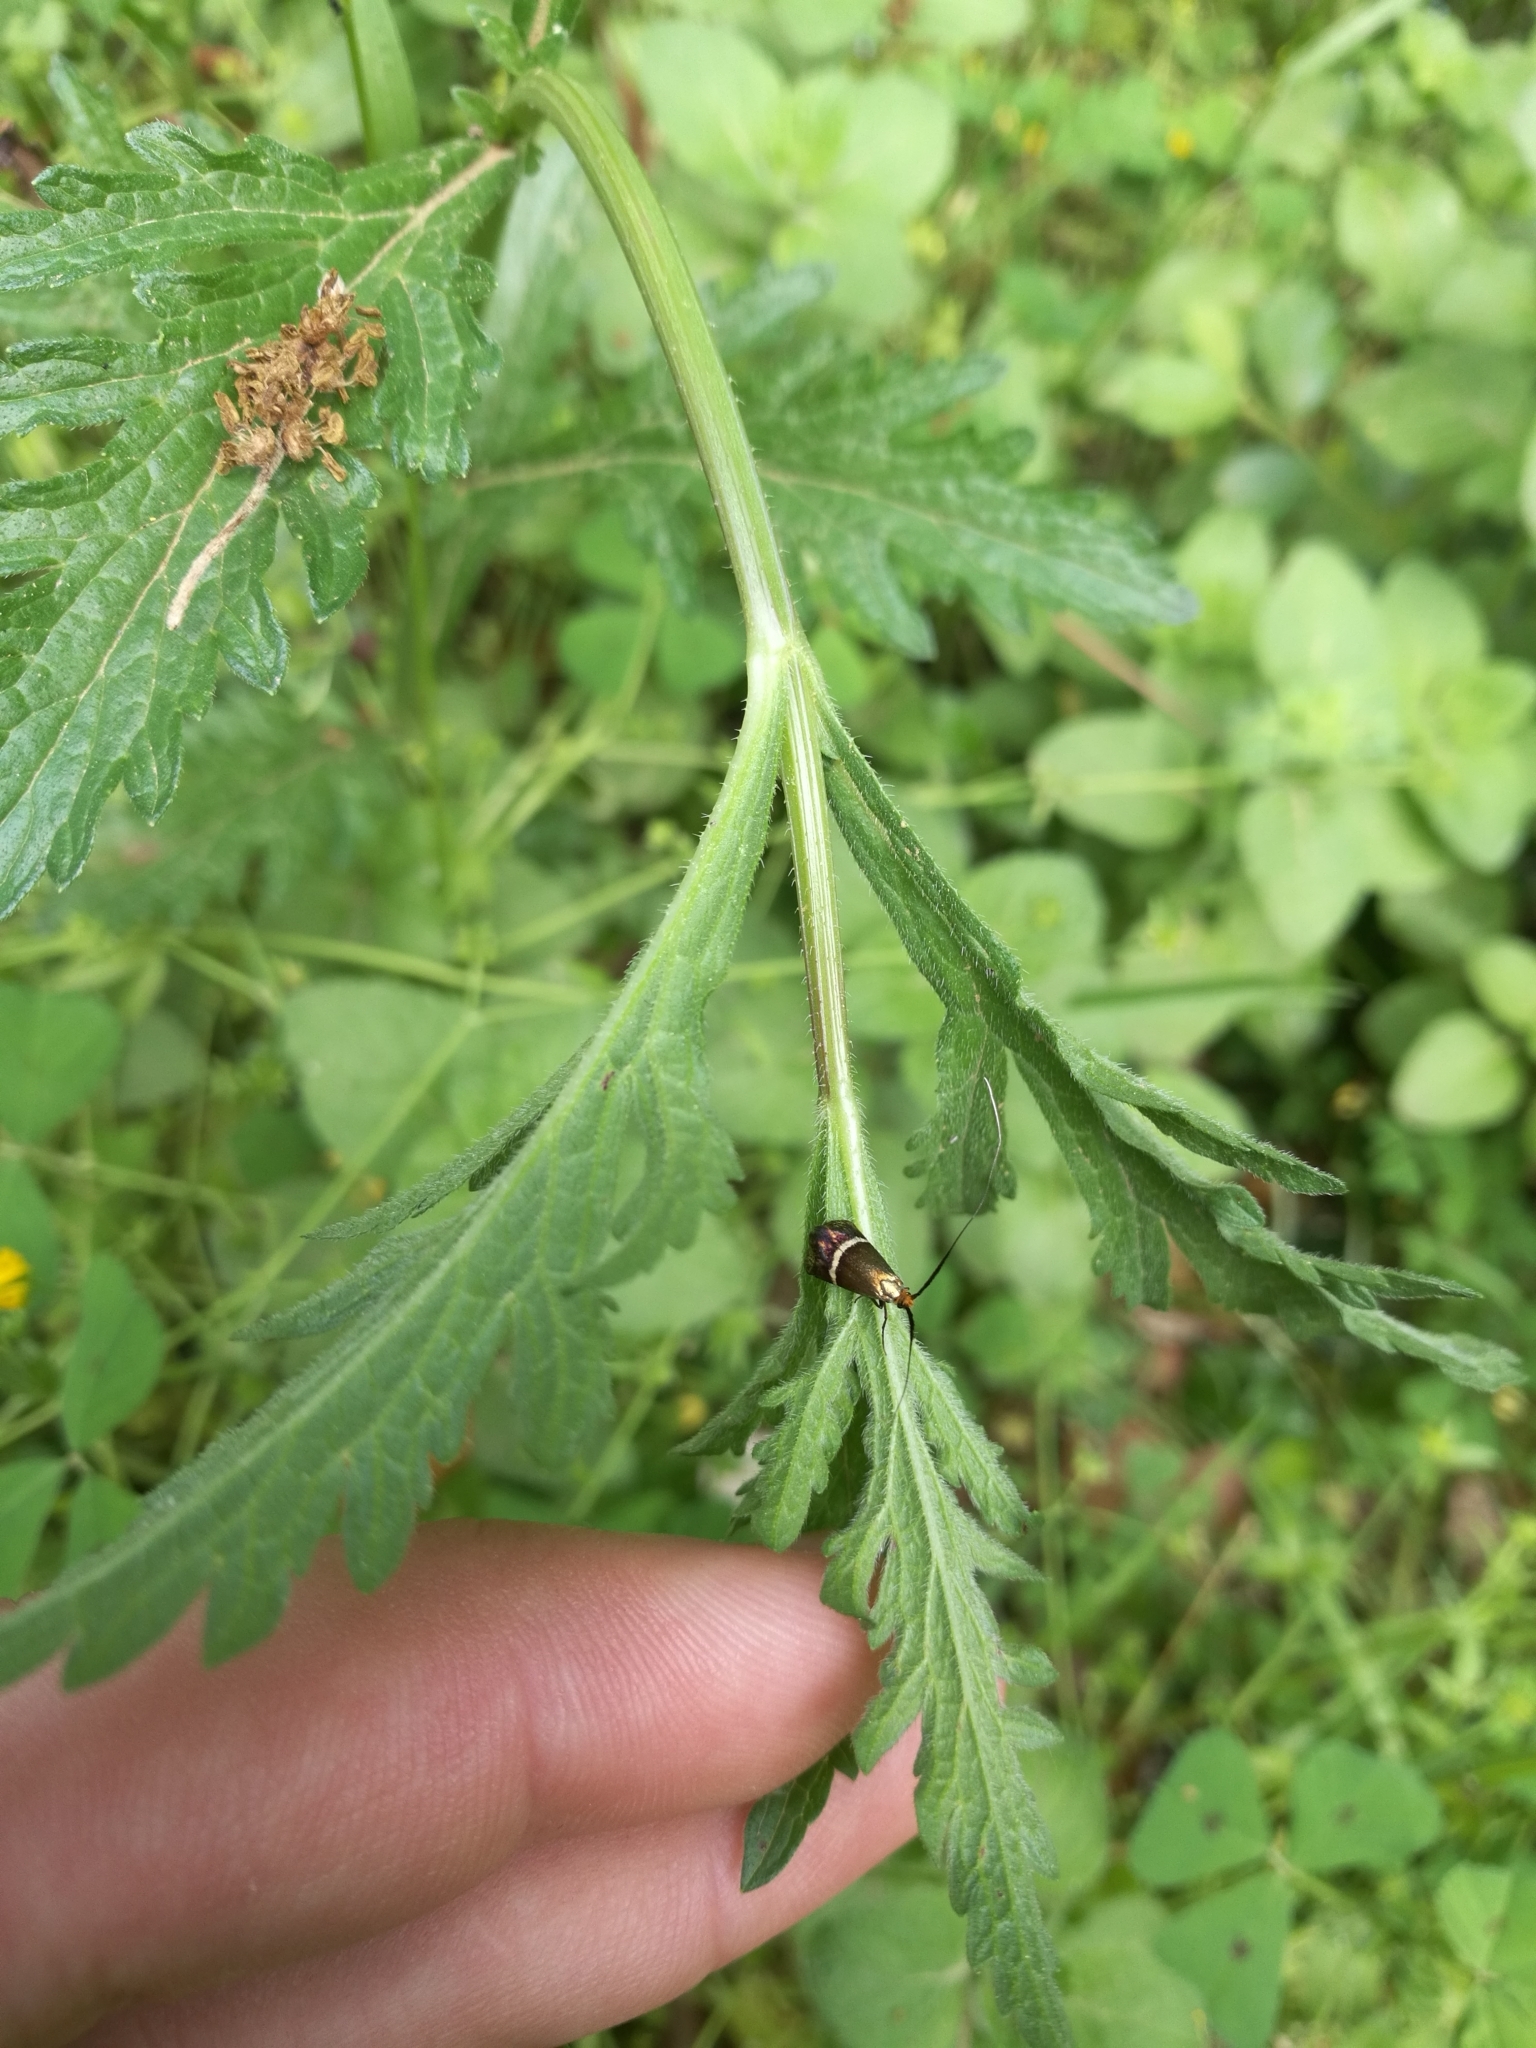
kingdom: Animalia
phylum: Arthropoda
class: Insecta
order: Lepidoptera
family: Adelidae
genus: Adela
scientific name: Adela australis
